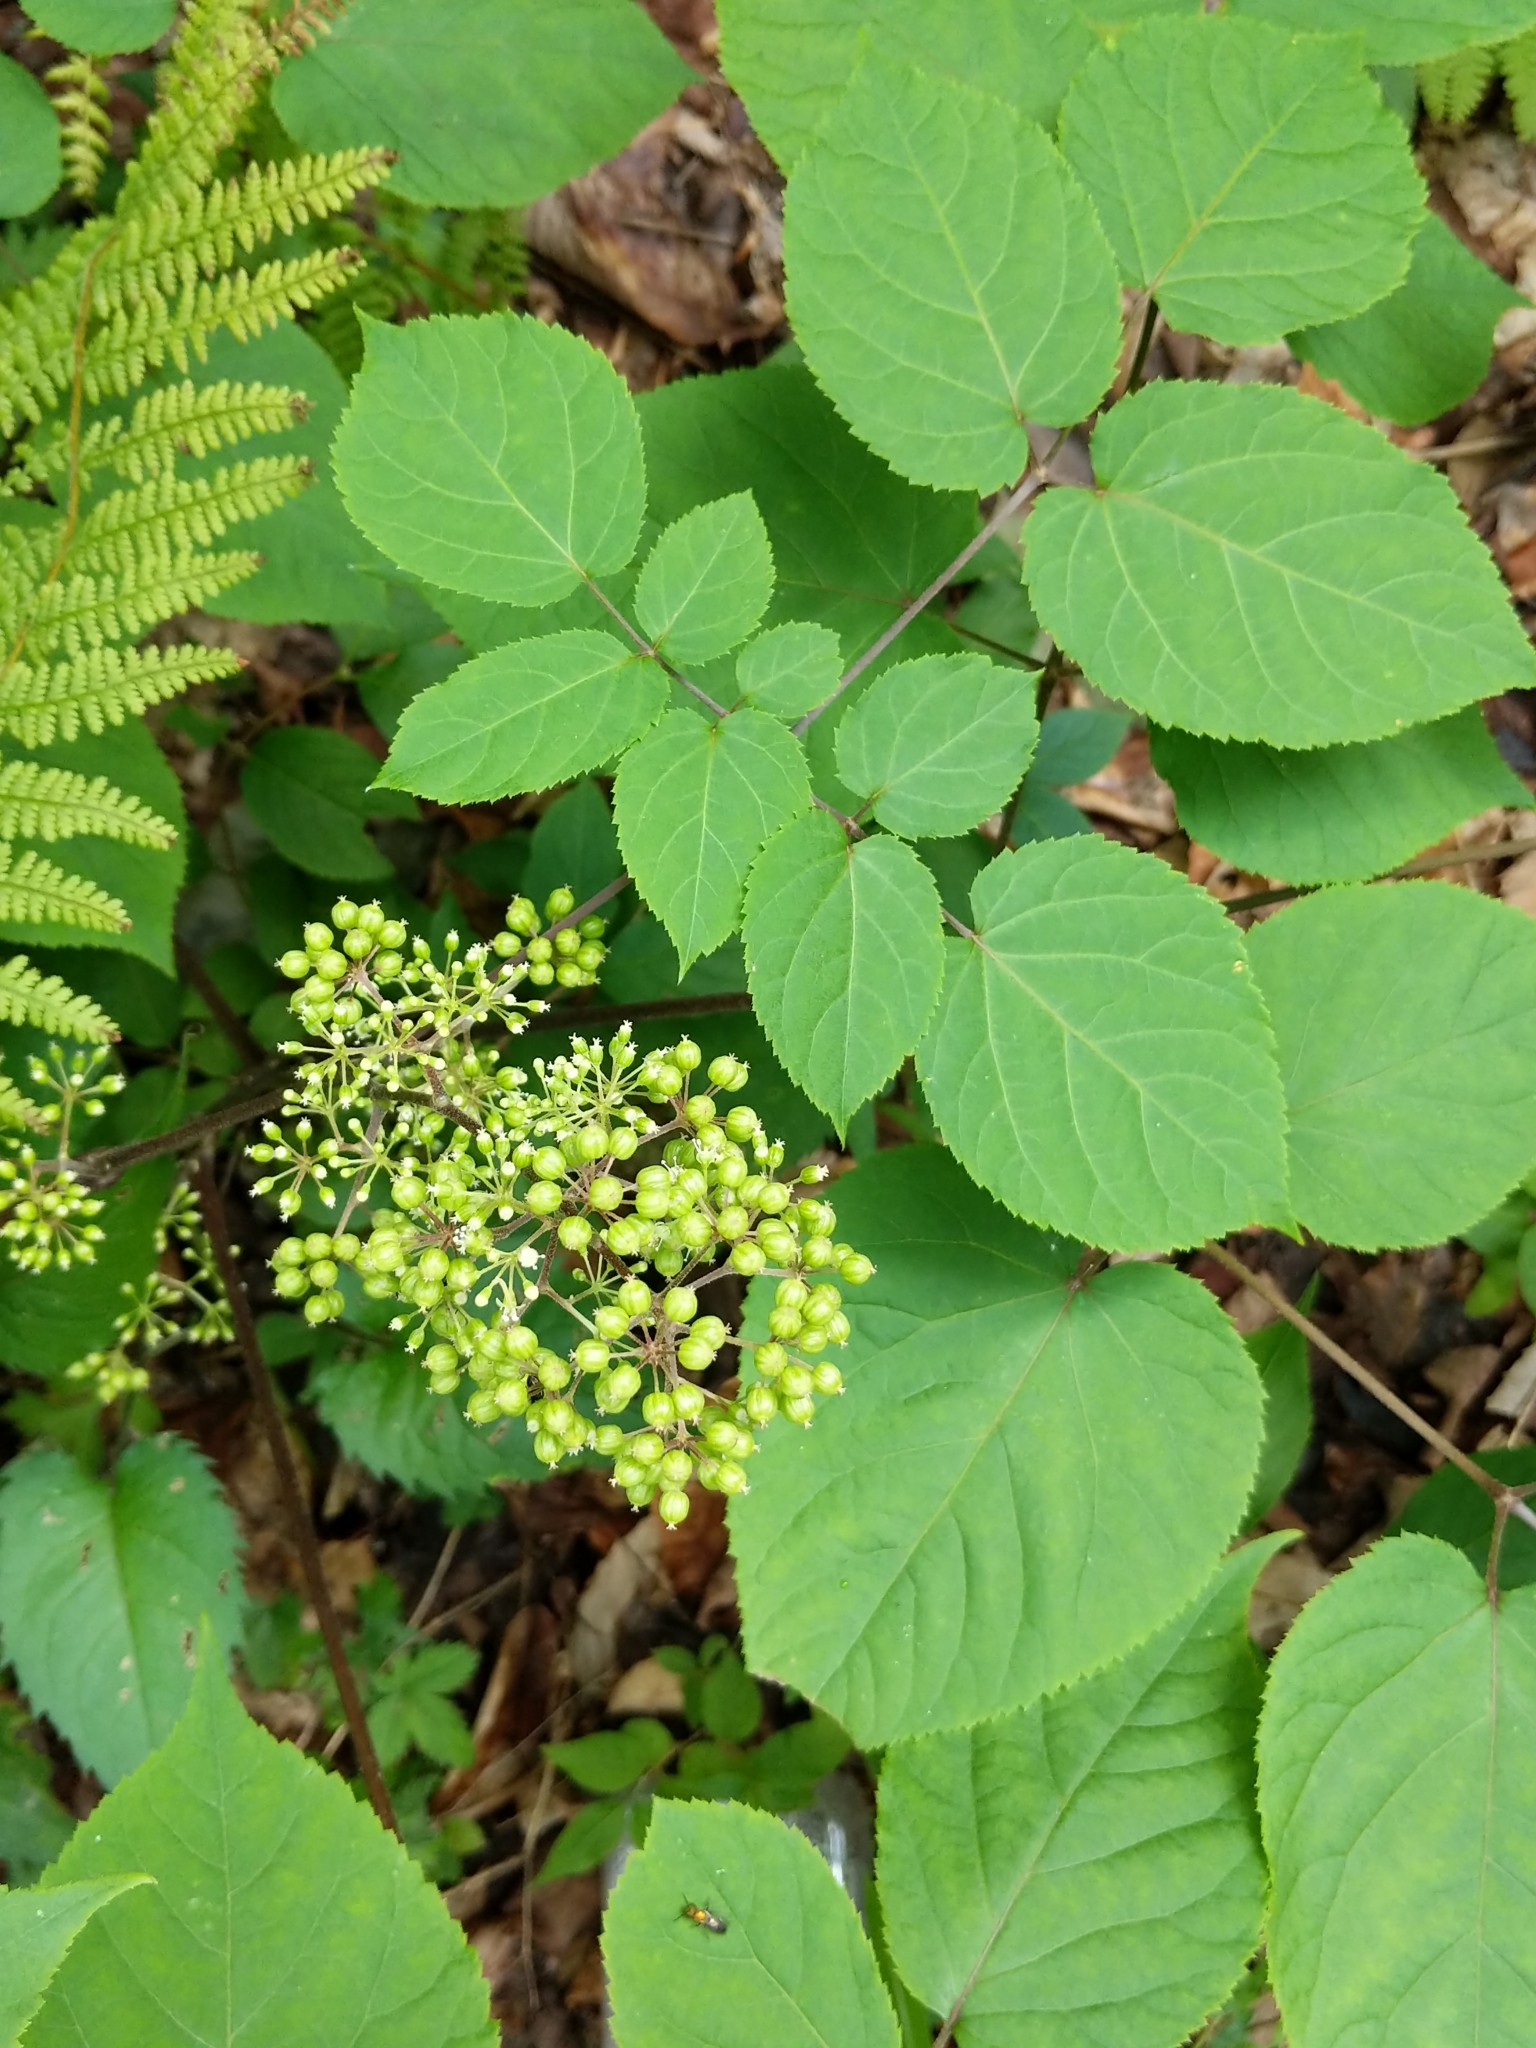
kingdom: Plantae
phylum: Tracheophyta
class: Magnoliopsida
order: Apiales
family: Araliaceae
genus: Aralia
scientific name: Aralia racemosa
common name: American-spikenard
